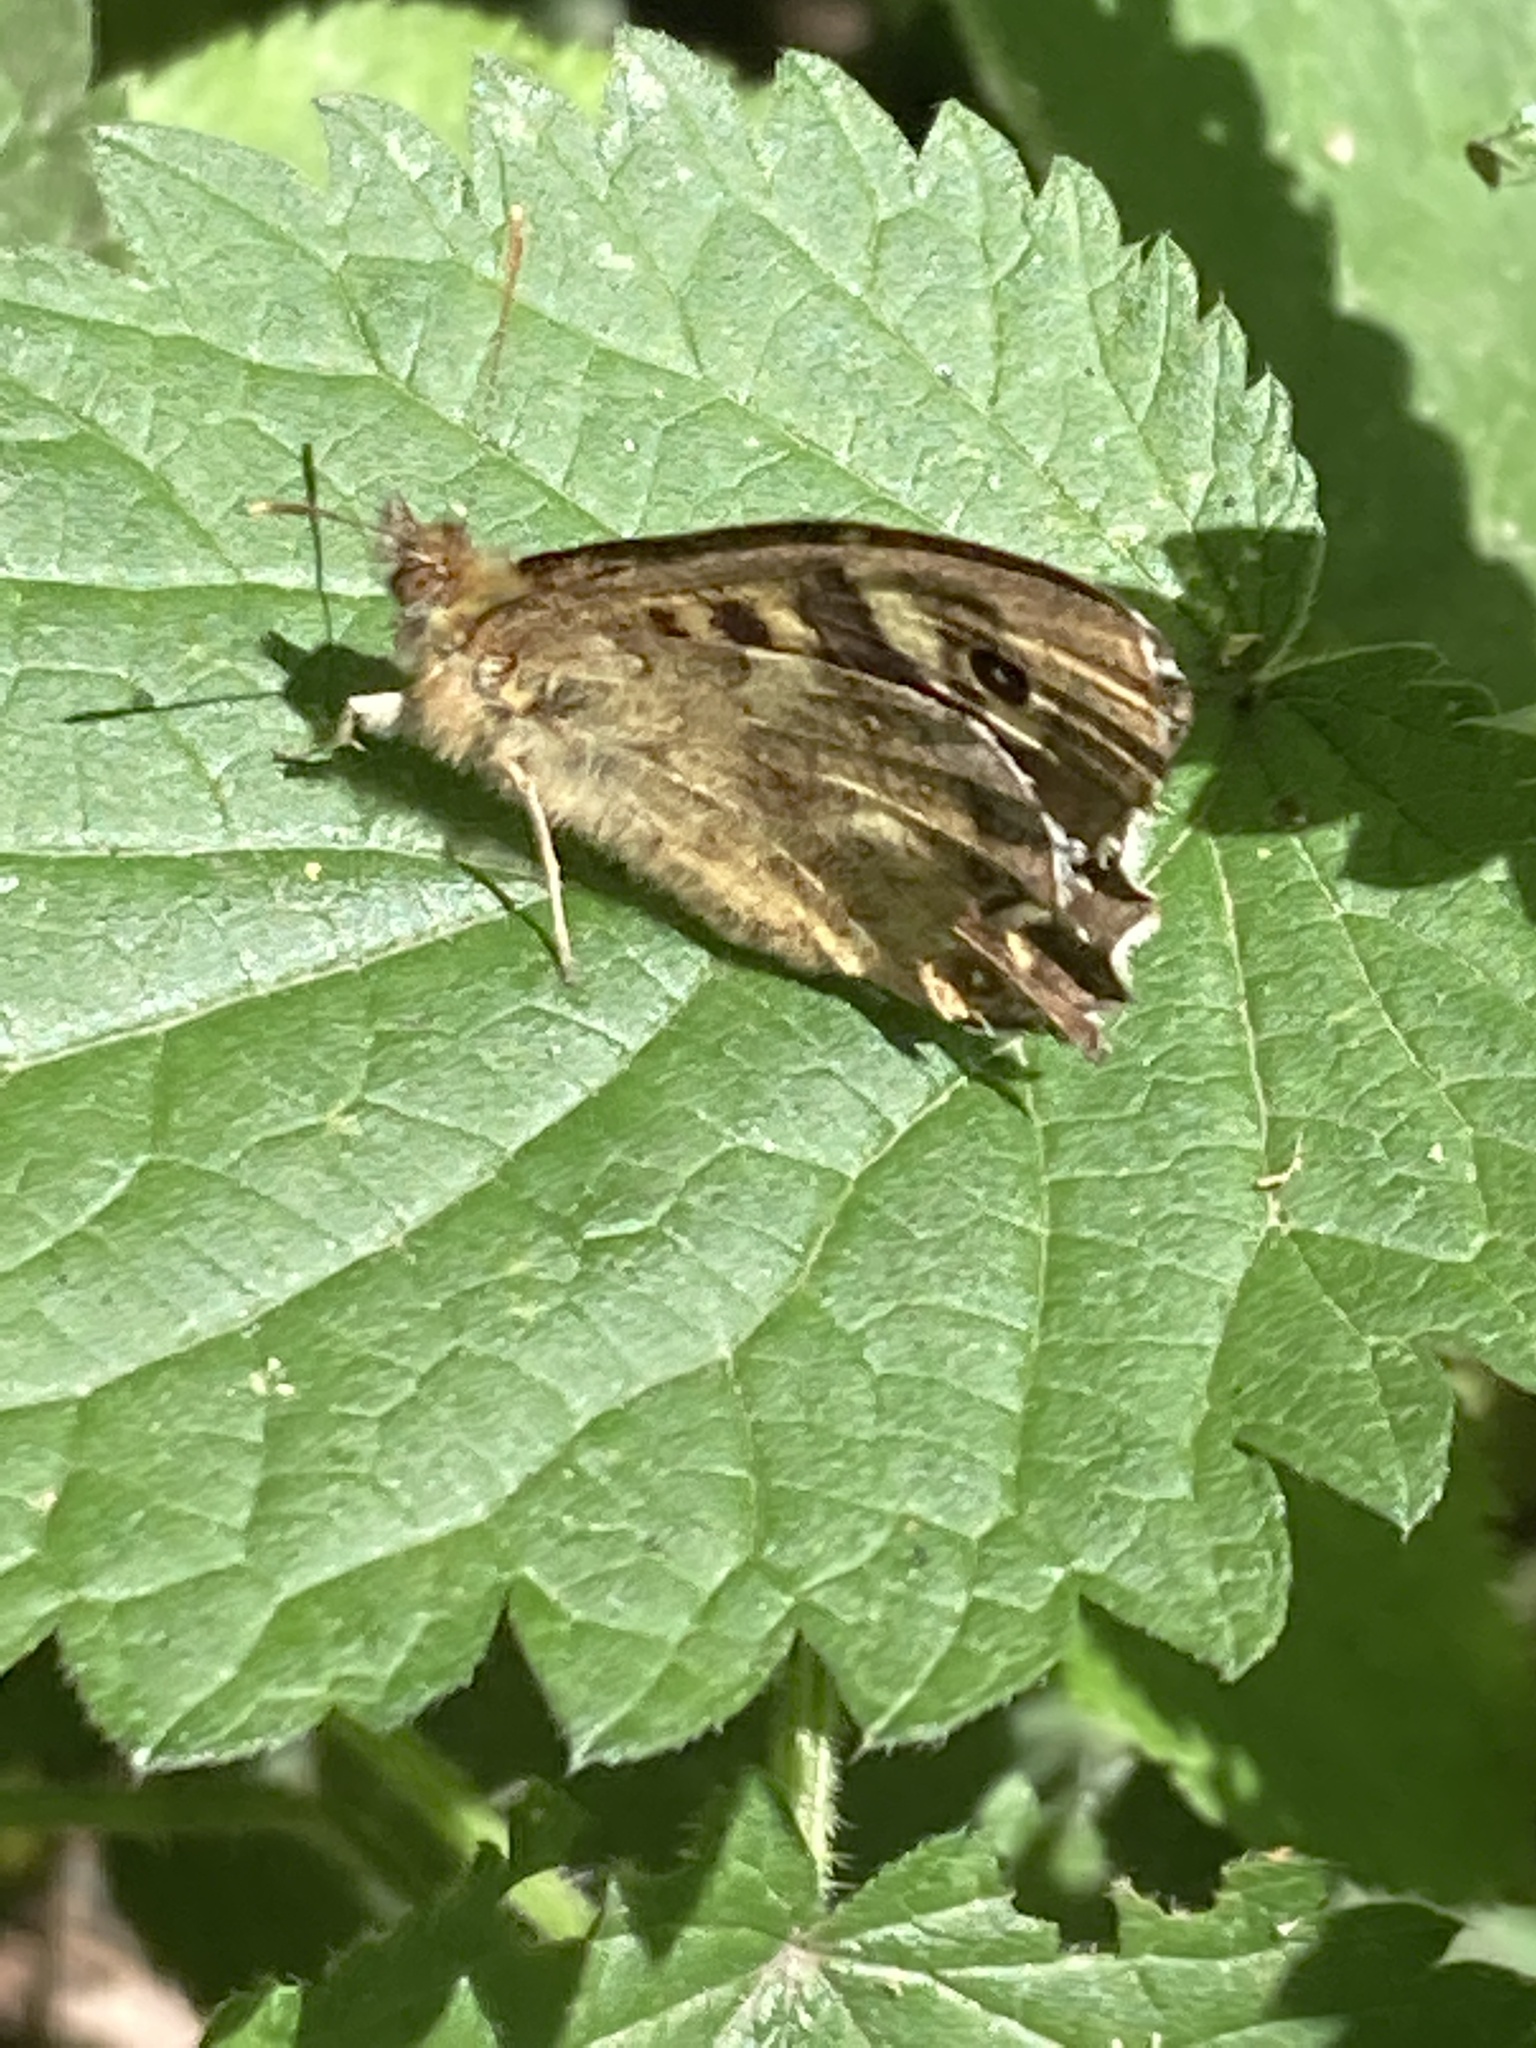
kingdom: Animalia
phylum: Arthropoda
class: Insecta
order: Lepidoptera
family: Nymphalidae
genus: Pararge
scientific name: Pararge aegeria
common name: Speckled wood
